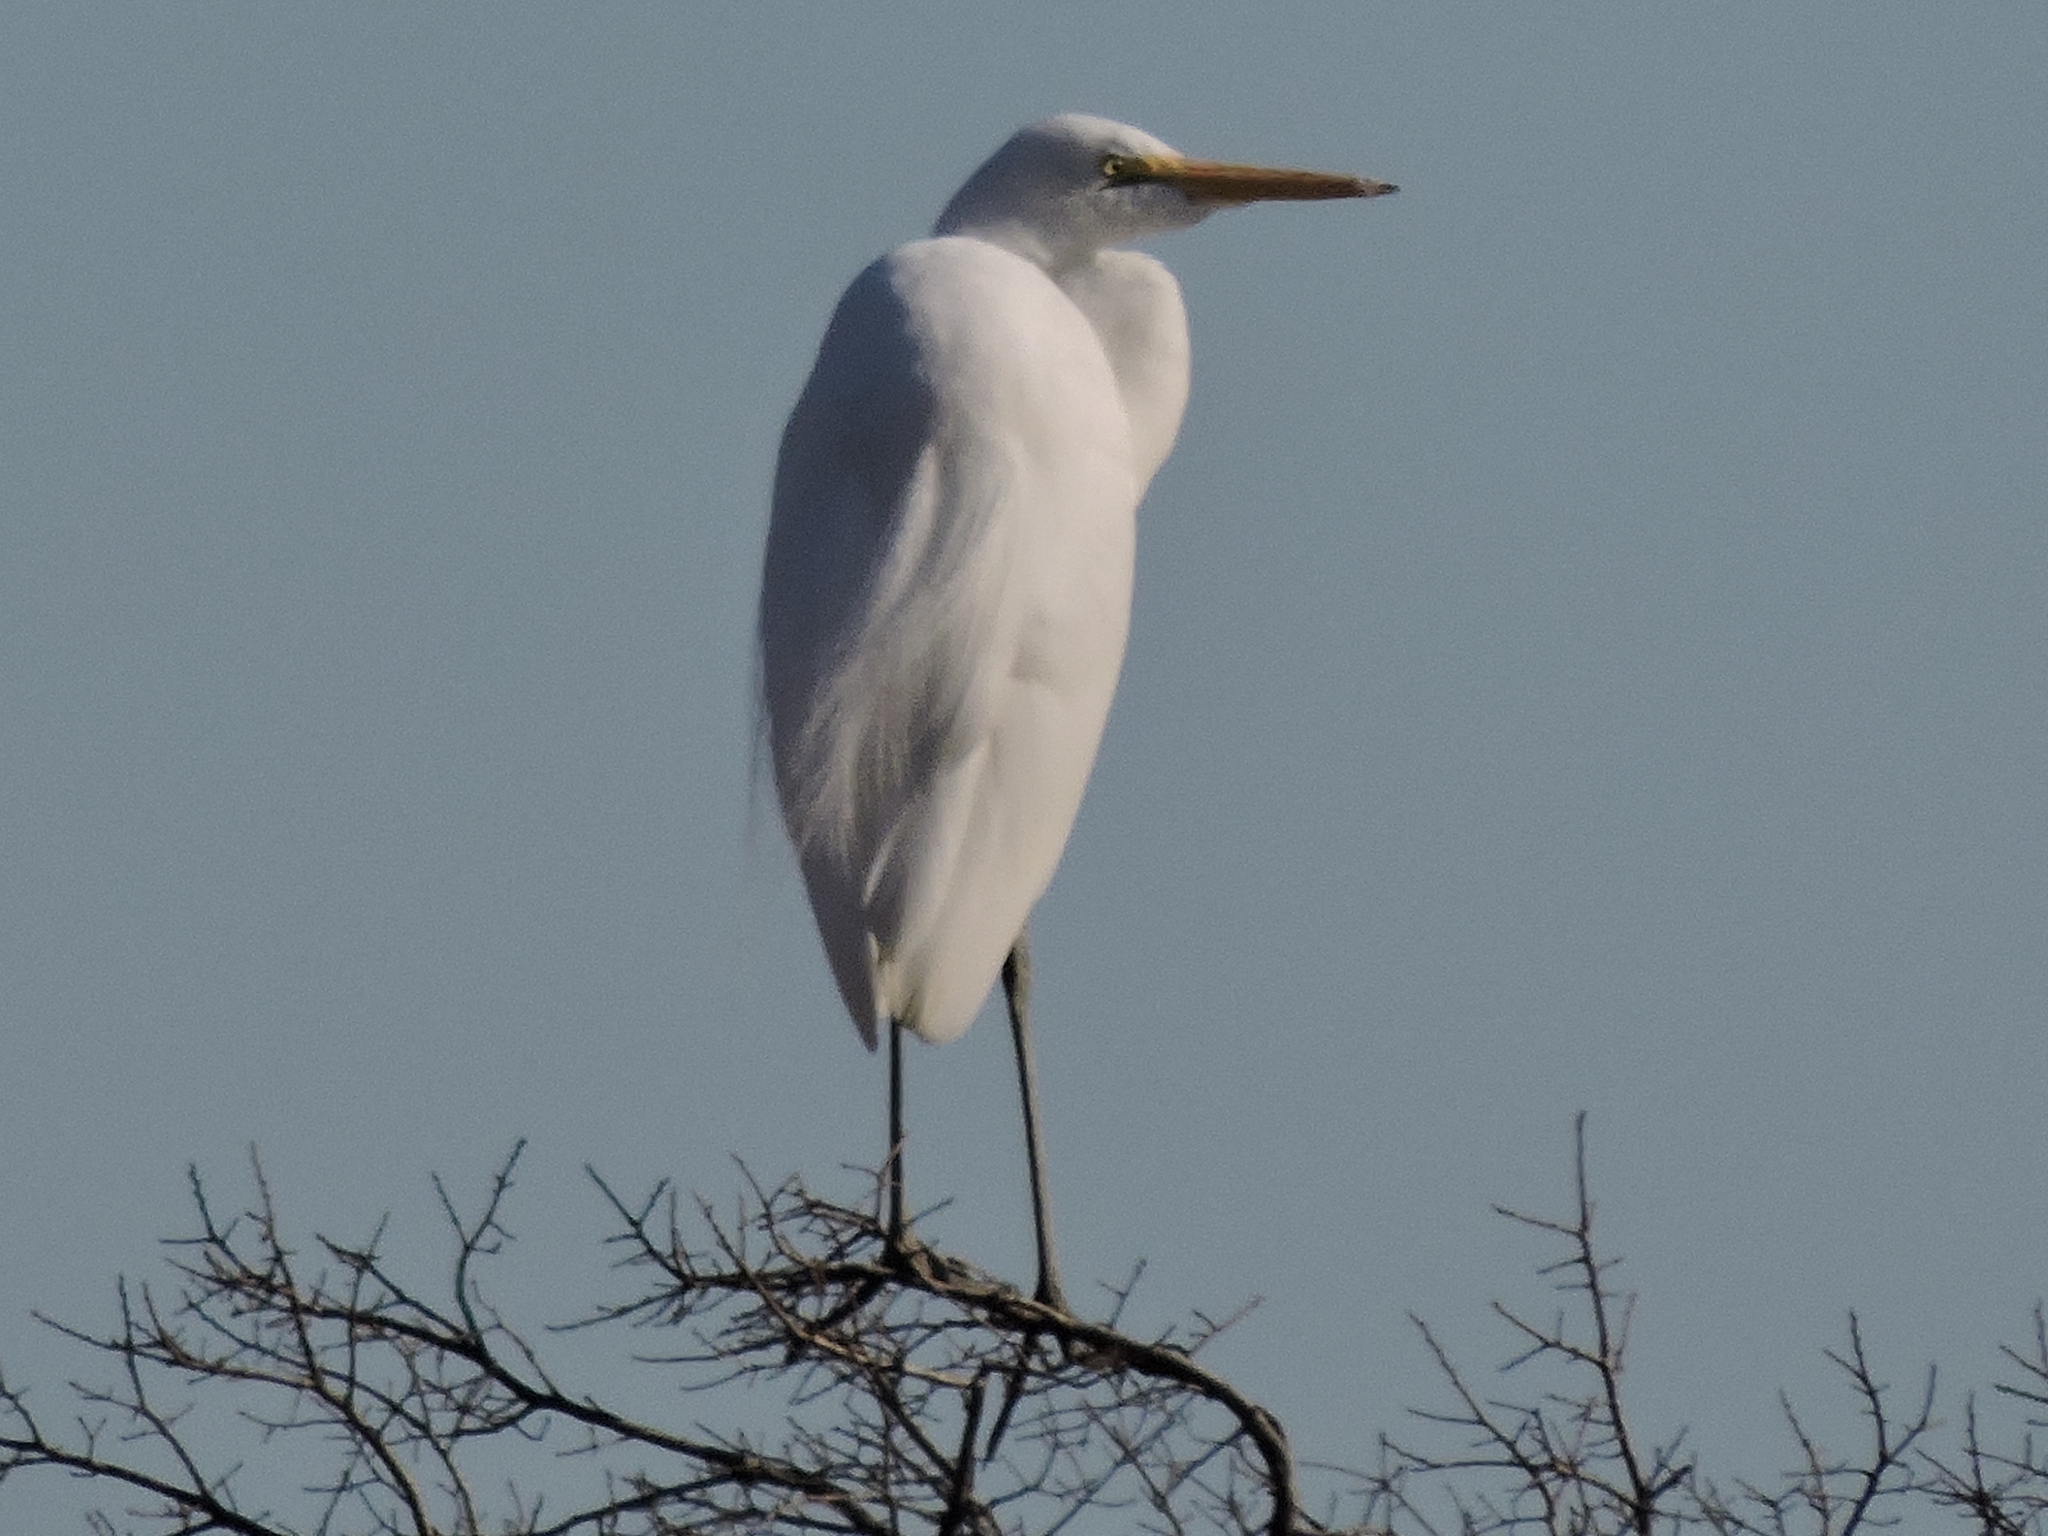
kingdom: Animalia
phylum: Chordata
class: Aves
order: Pelecaniformes
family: Ardeidae
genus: Ardea
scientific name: Ardea alba
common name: Great egret
